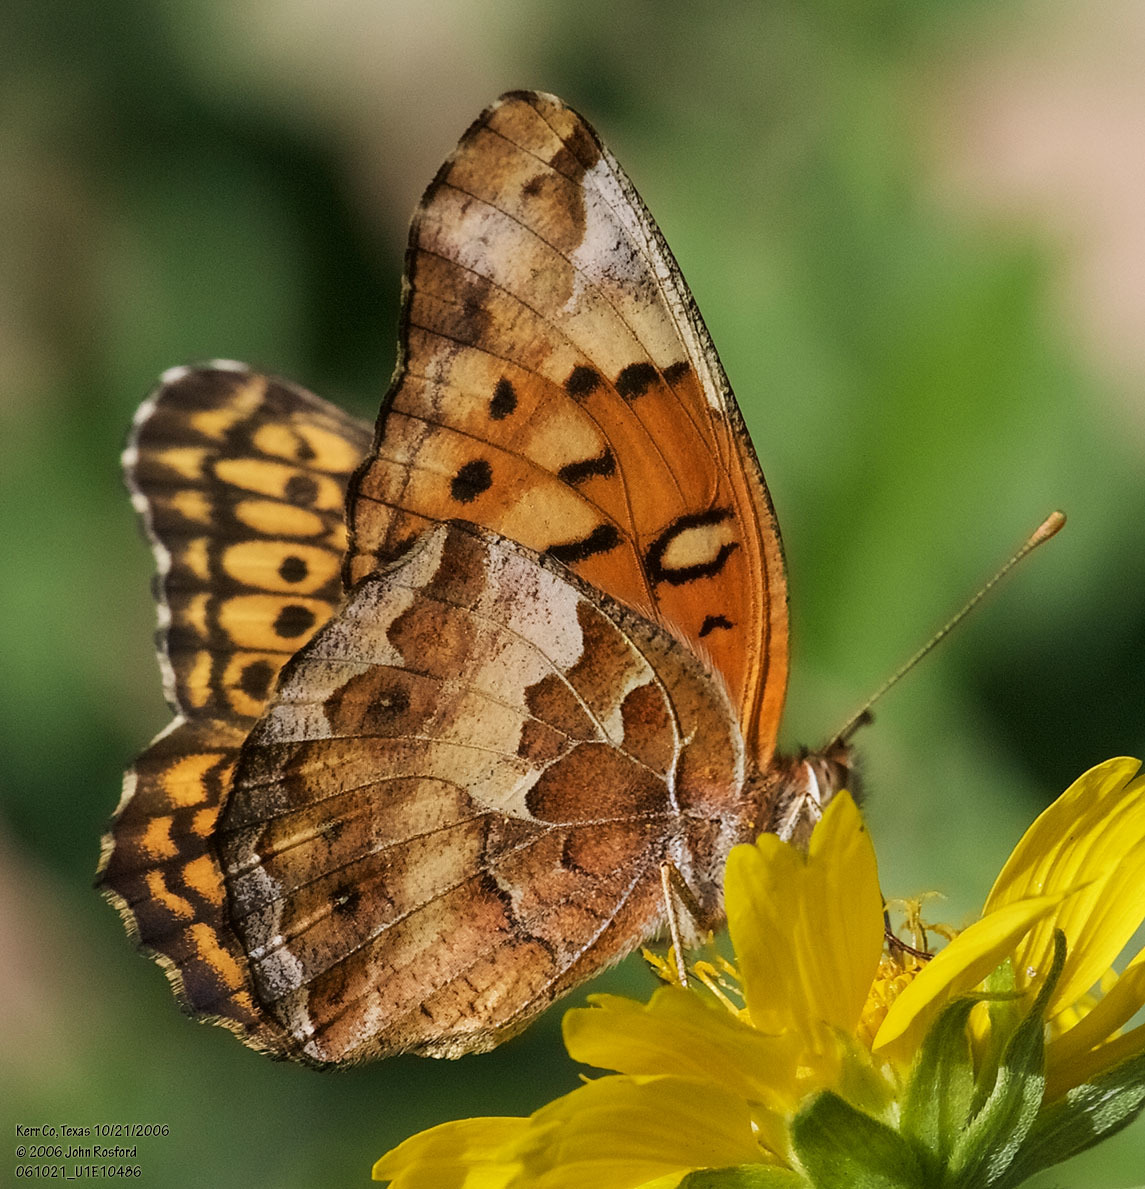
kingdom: Animalia
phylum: Arthropoda
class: Insecta
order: Lepidoptera
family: Nymphalidae
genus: Euptoieta
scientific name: Euptoieta claudia
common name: Variegated fritillary
